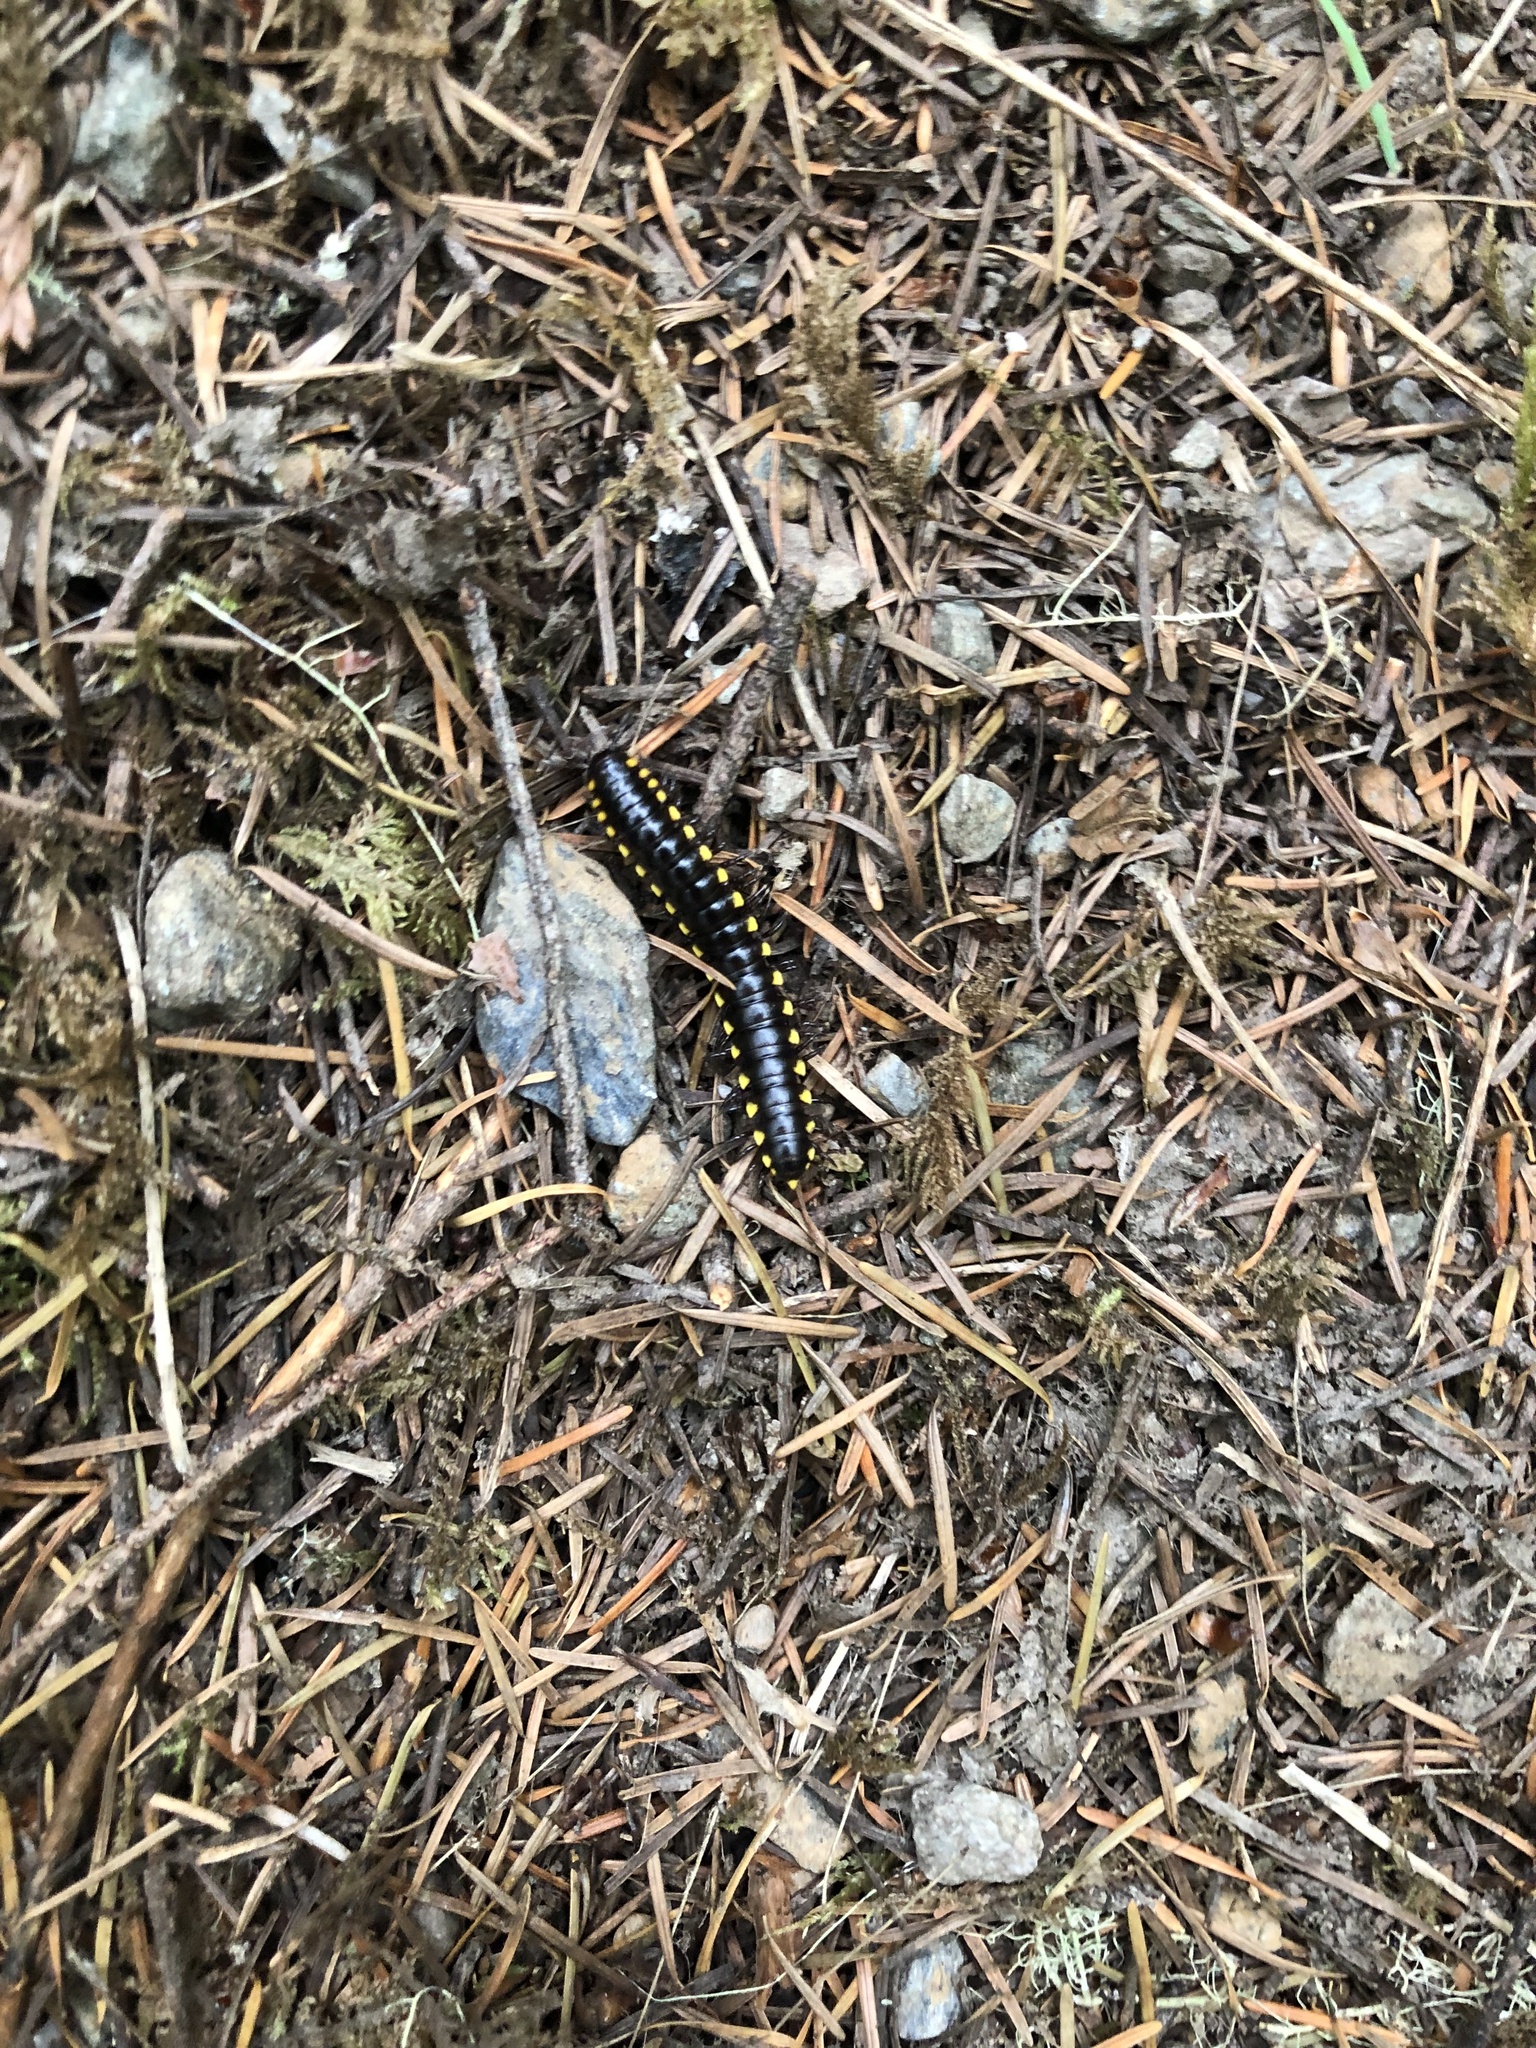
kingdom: Animalia
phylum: Arthropoda
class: Diplopoda
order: Polydesmida
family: Xystodesmidae
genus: Harpaphe
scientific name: Harpaphe haydeniana
